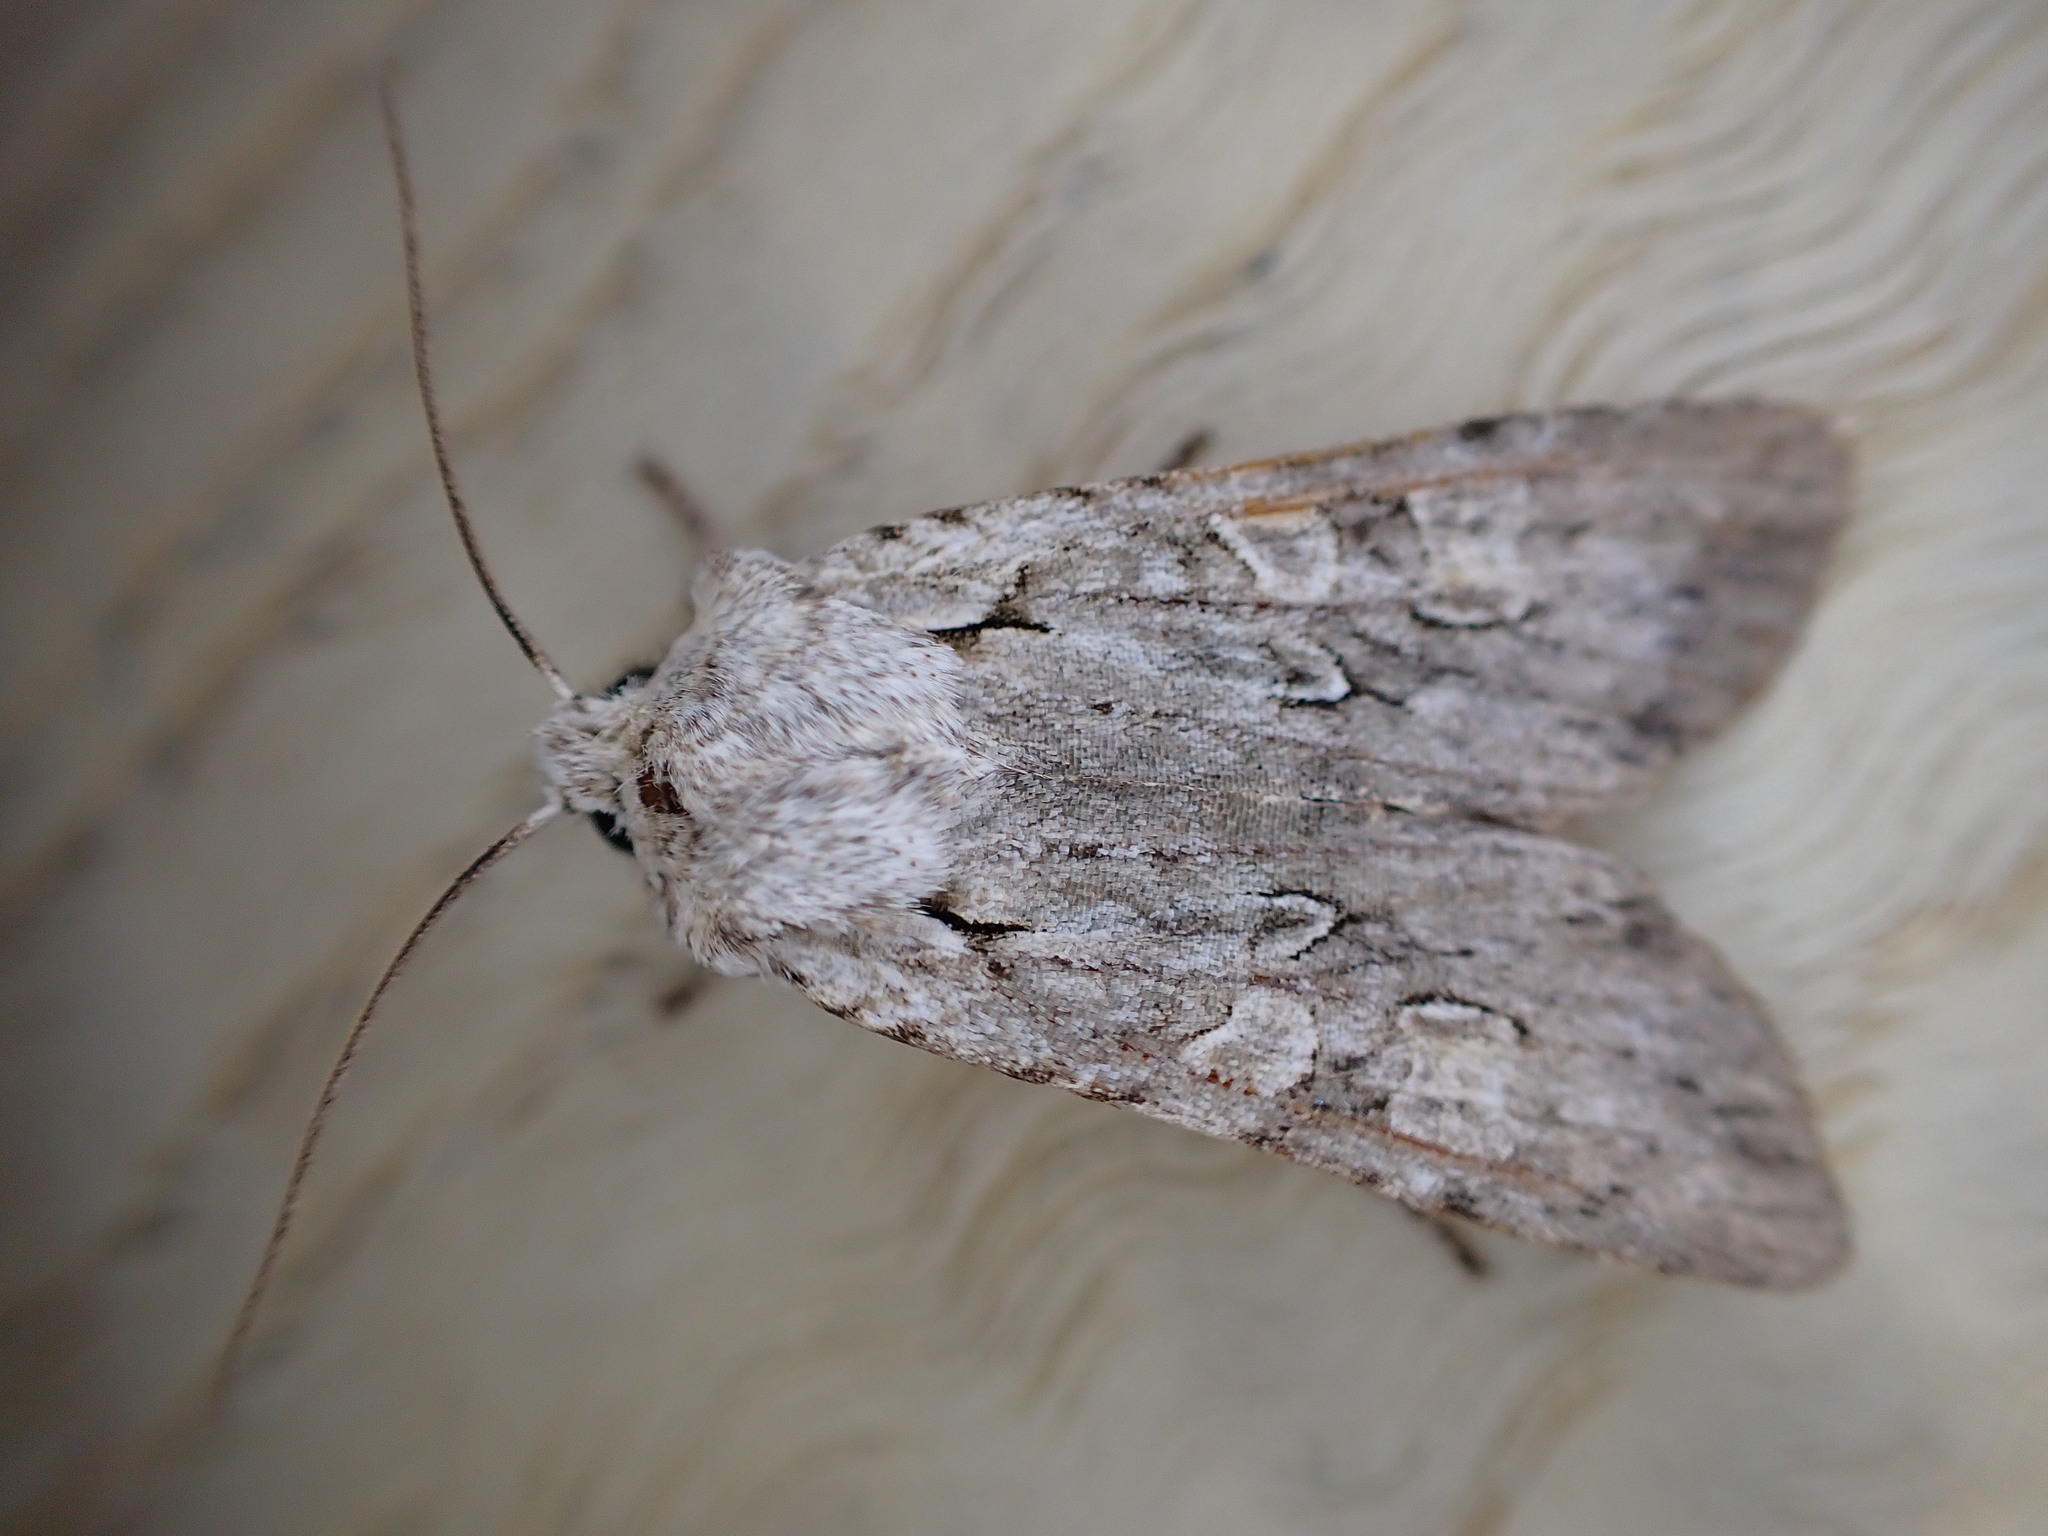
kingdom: Animalia
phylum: Arthropoda
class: Insecta
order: Lepidoptera
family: Noctuidae
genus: Lithophane
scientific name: Lithophane ornitopus
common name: Grey shoulder-knot
